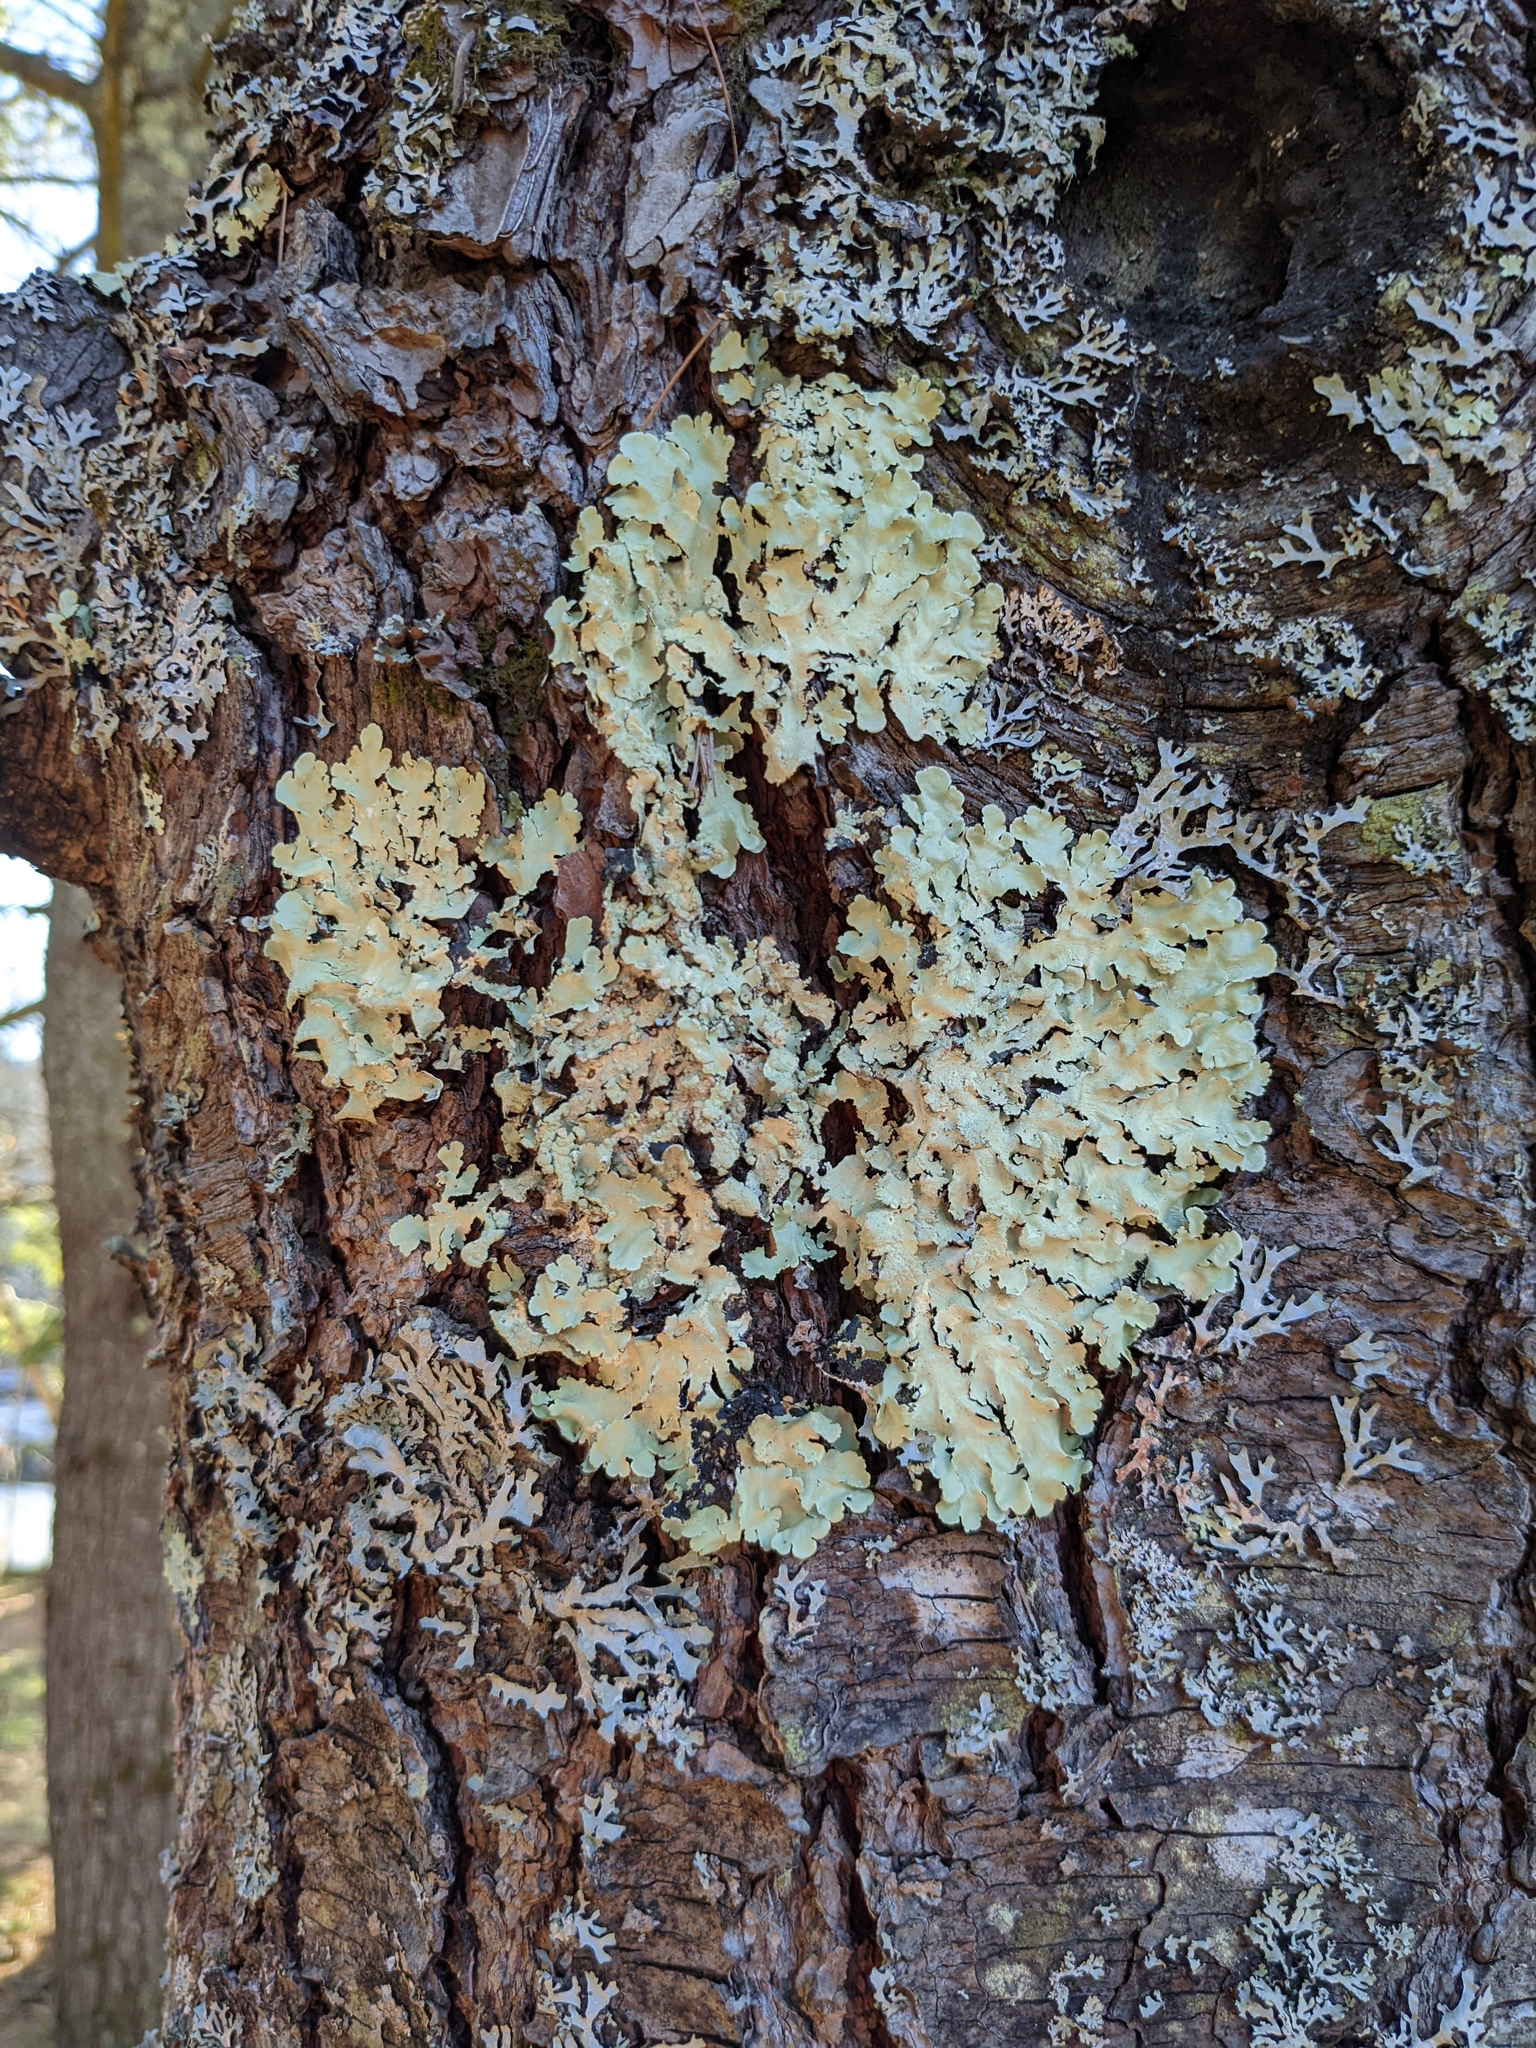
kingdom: Fungi
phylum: Ascomycota
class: Lecanoromycetes
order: Lecanorales
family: Parmeliaceae
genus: Flavoparmelia
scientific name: Flavoparmelia caperata
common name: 40-mile per hour lichen
